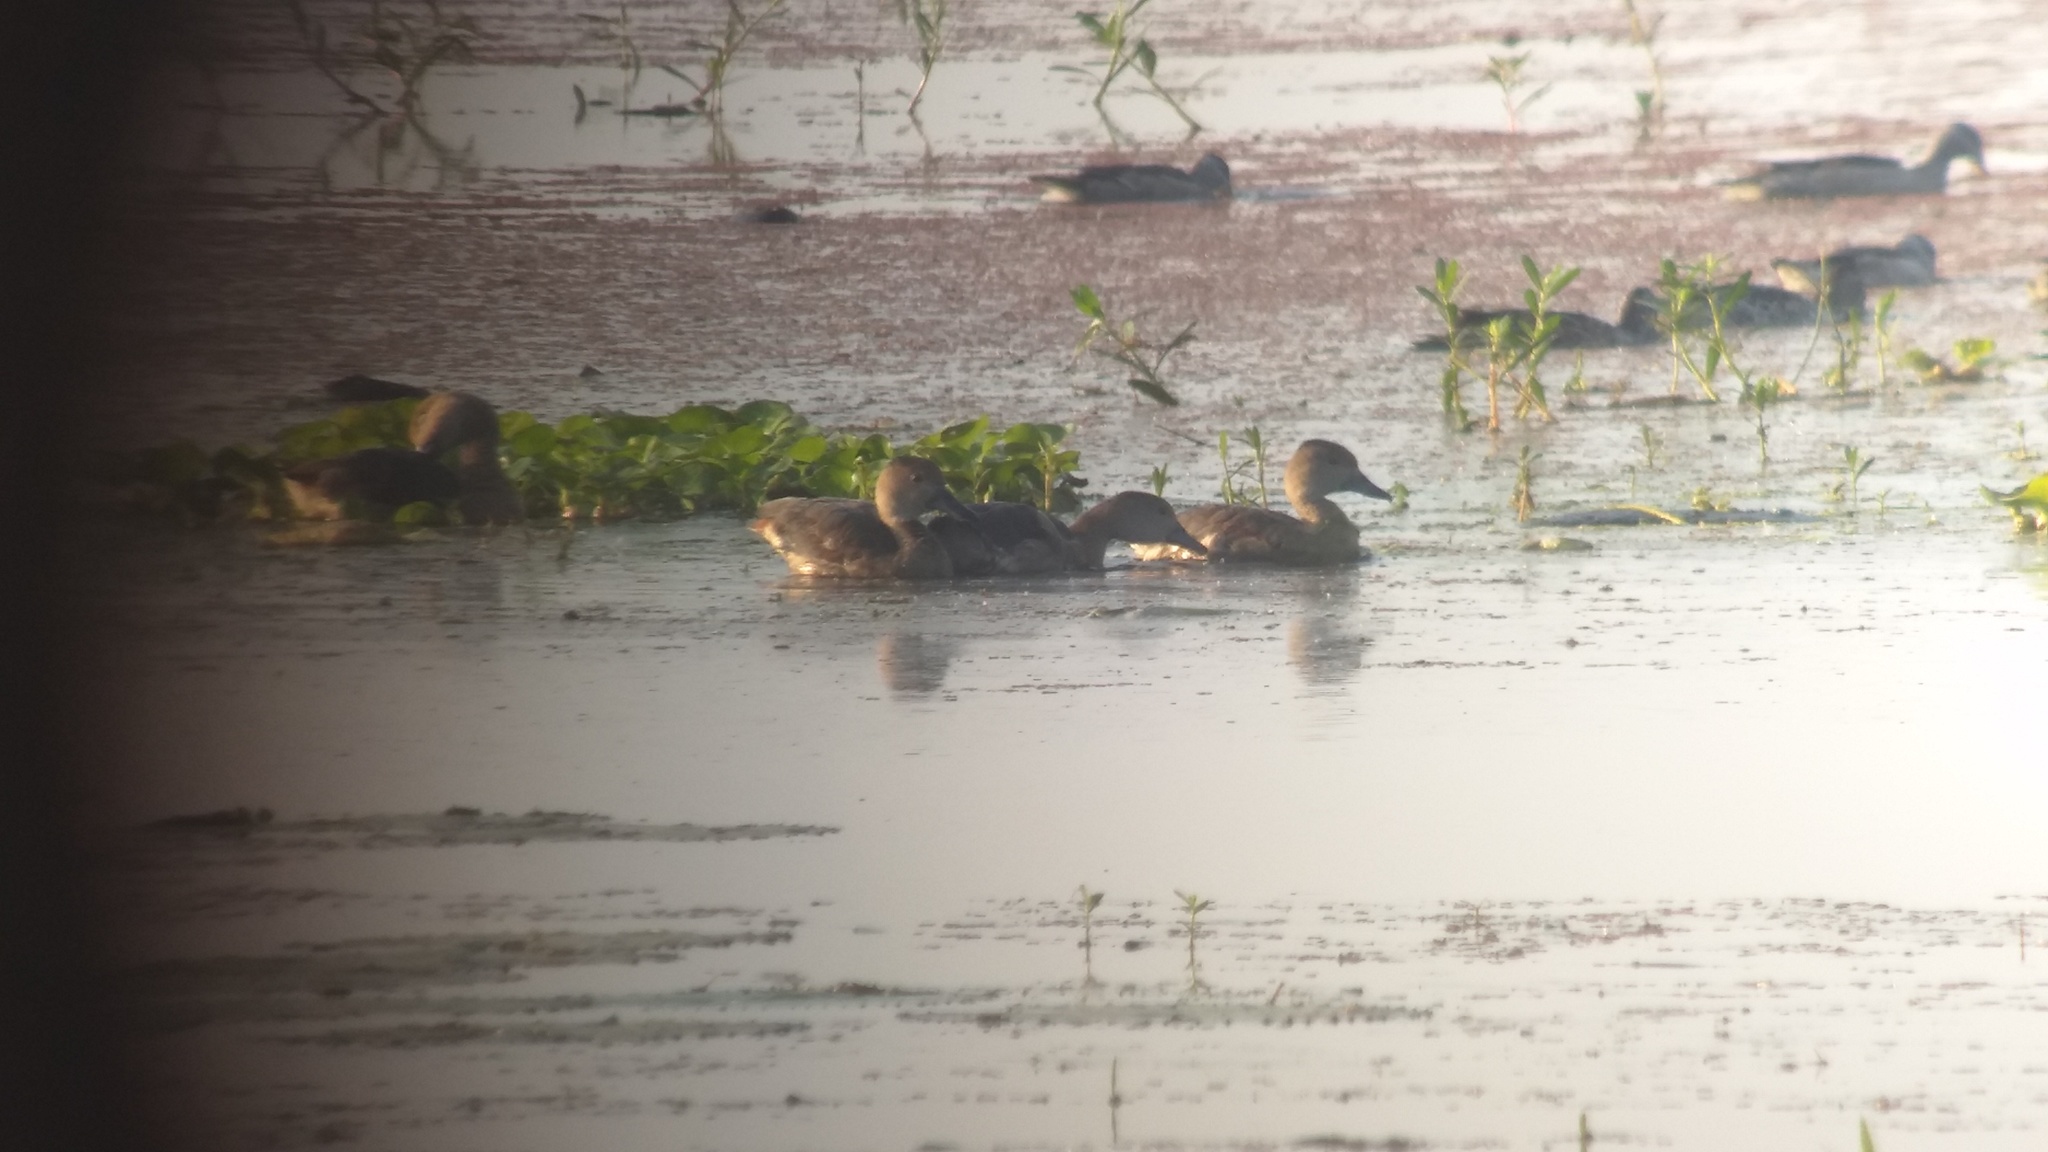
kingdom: Animalia
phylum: Chordata
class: Aves
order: Anseriformes
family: Anatidae
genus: Dendrocygna
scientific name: Dendrocygna javanica
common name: Lesser whistling-duck
